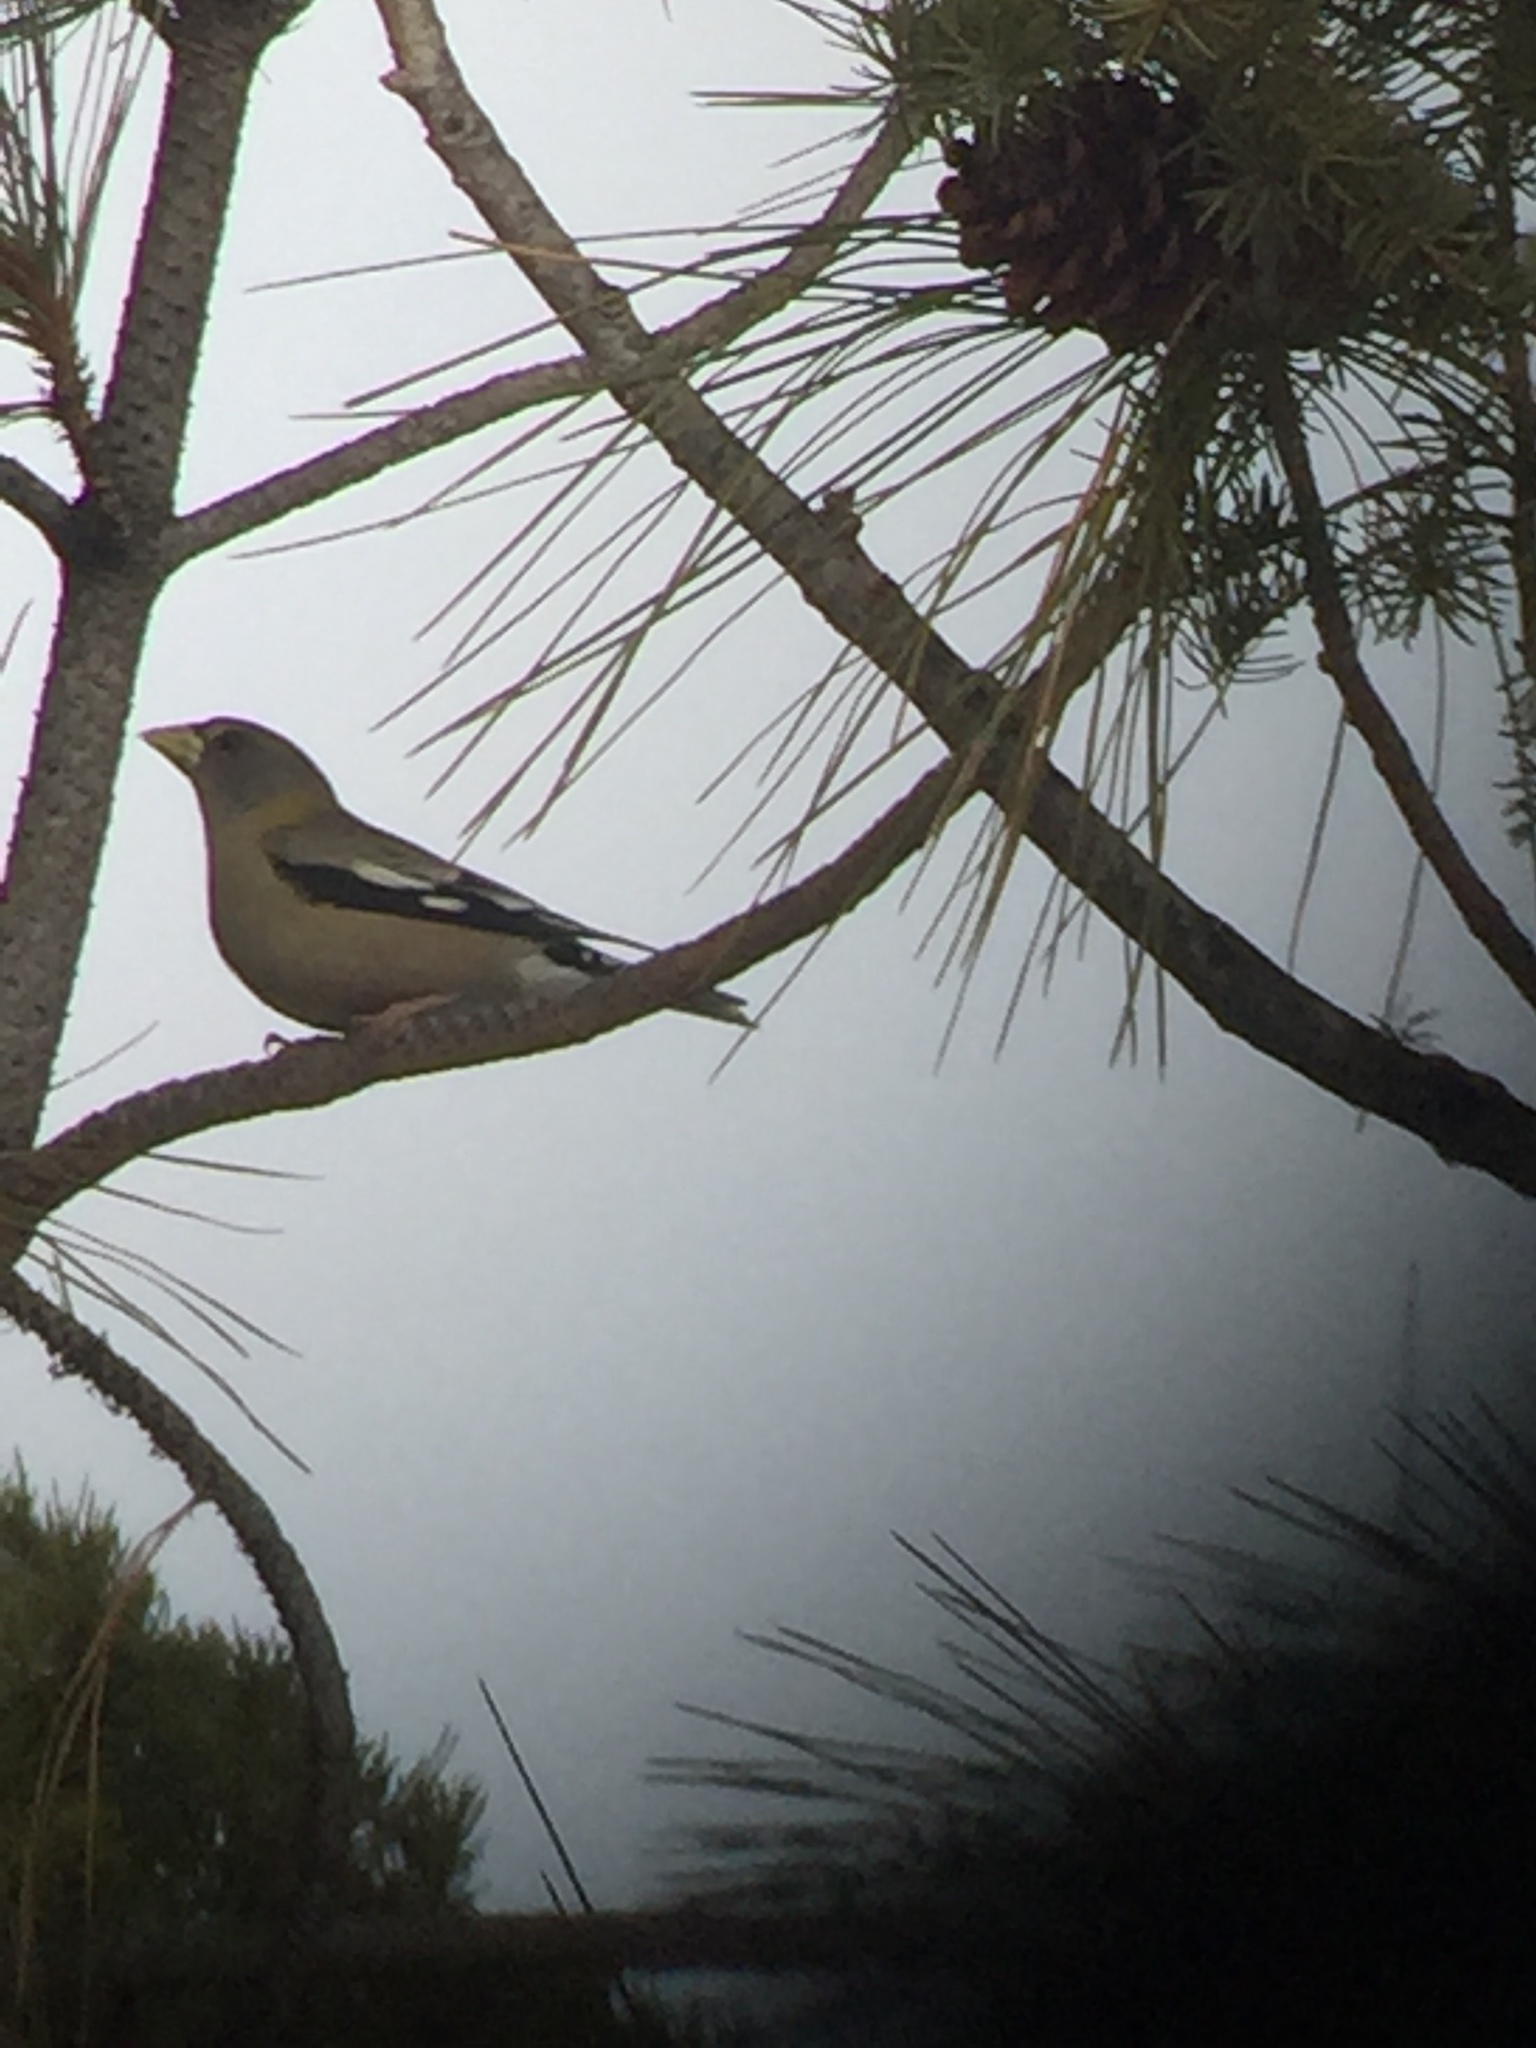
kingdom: Animalia
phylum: Chordata
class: Aves
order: Passeriformes
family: Fringillidae
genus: Hesperiphona
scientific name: Hesperiphona vespertina
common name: Evening grosbeak
